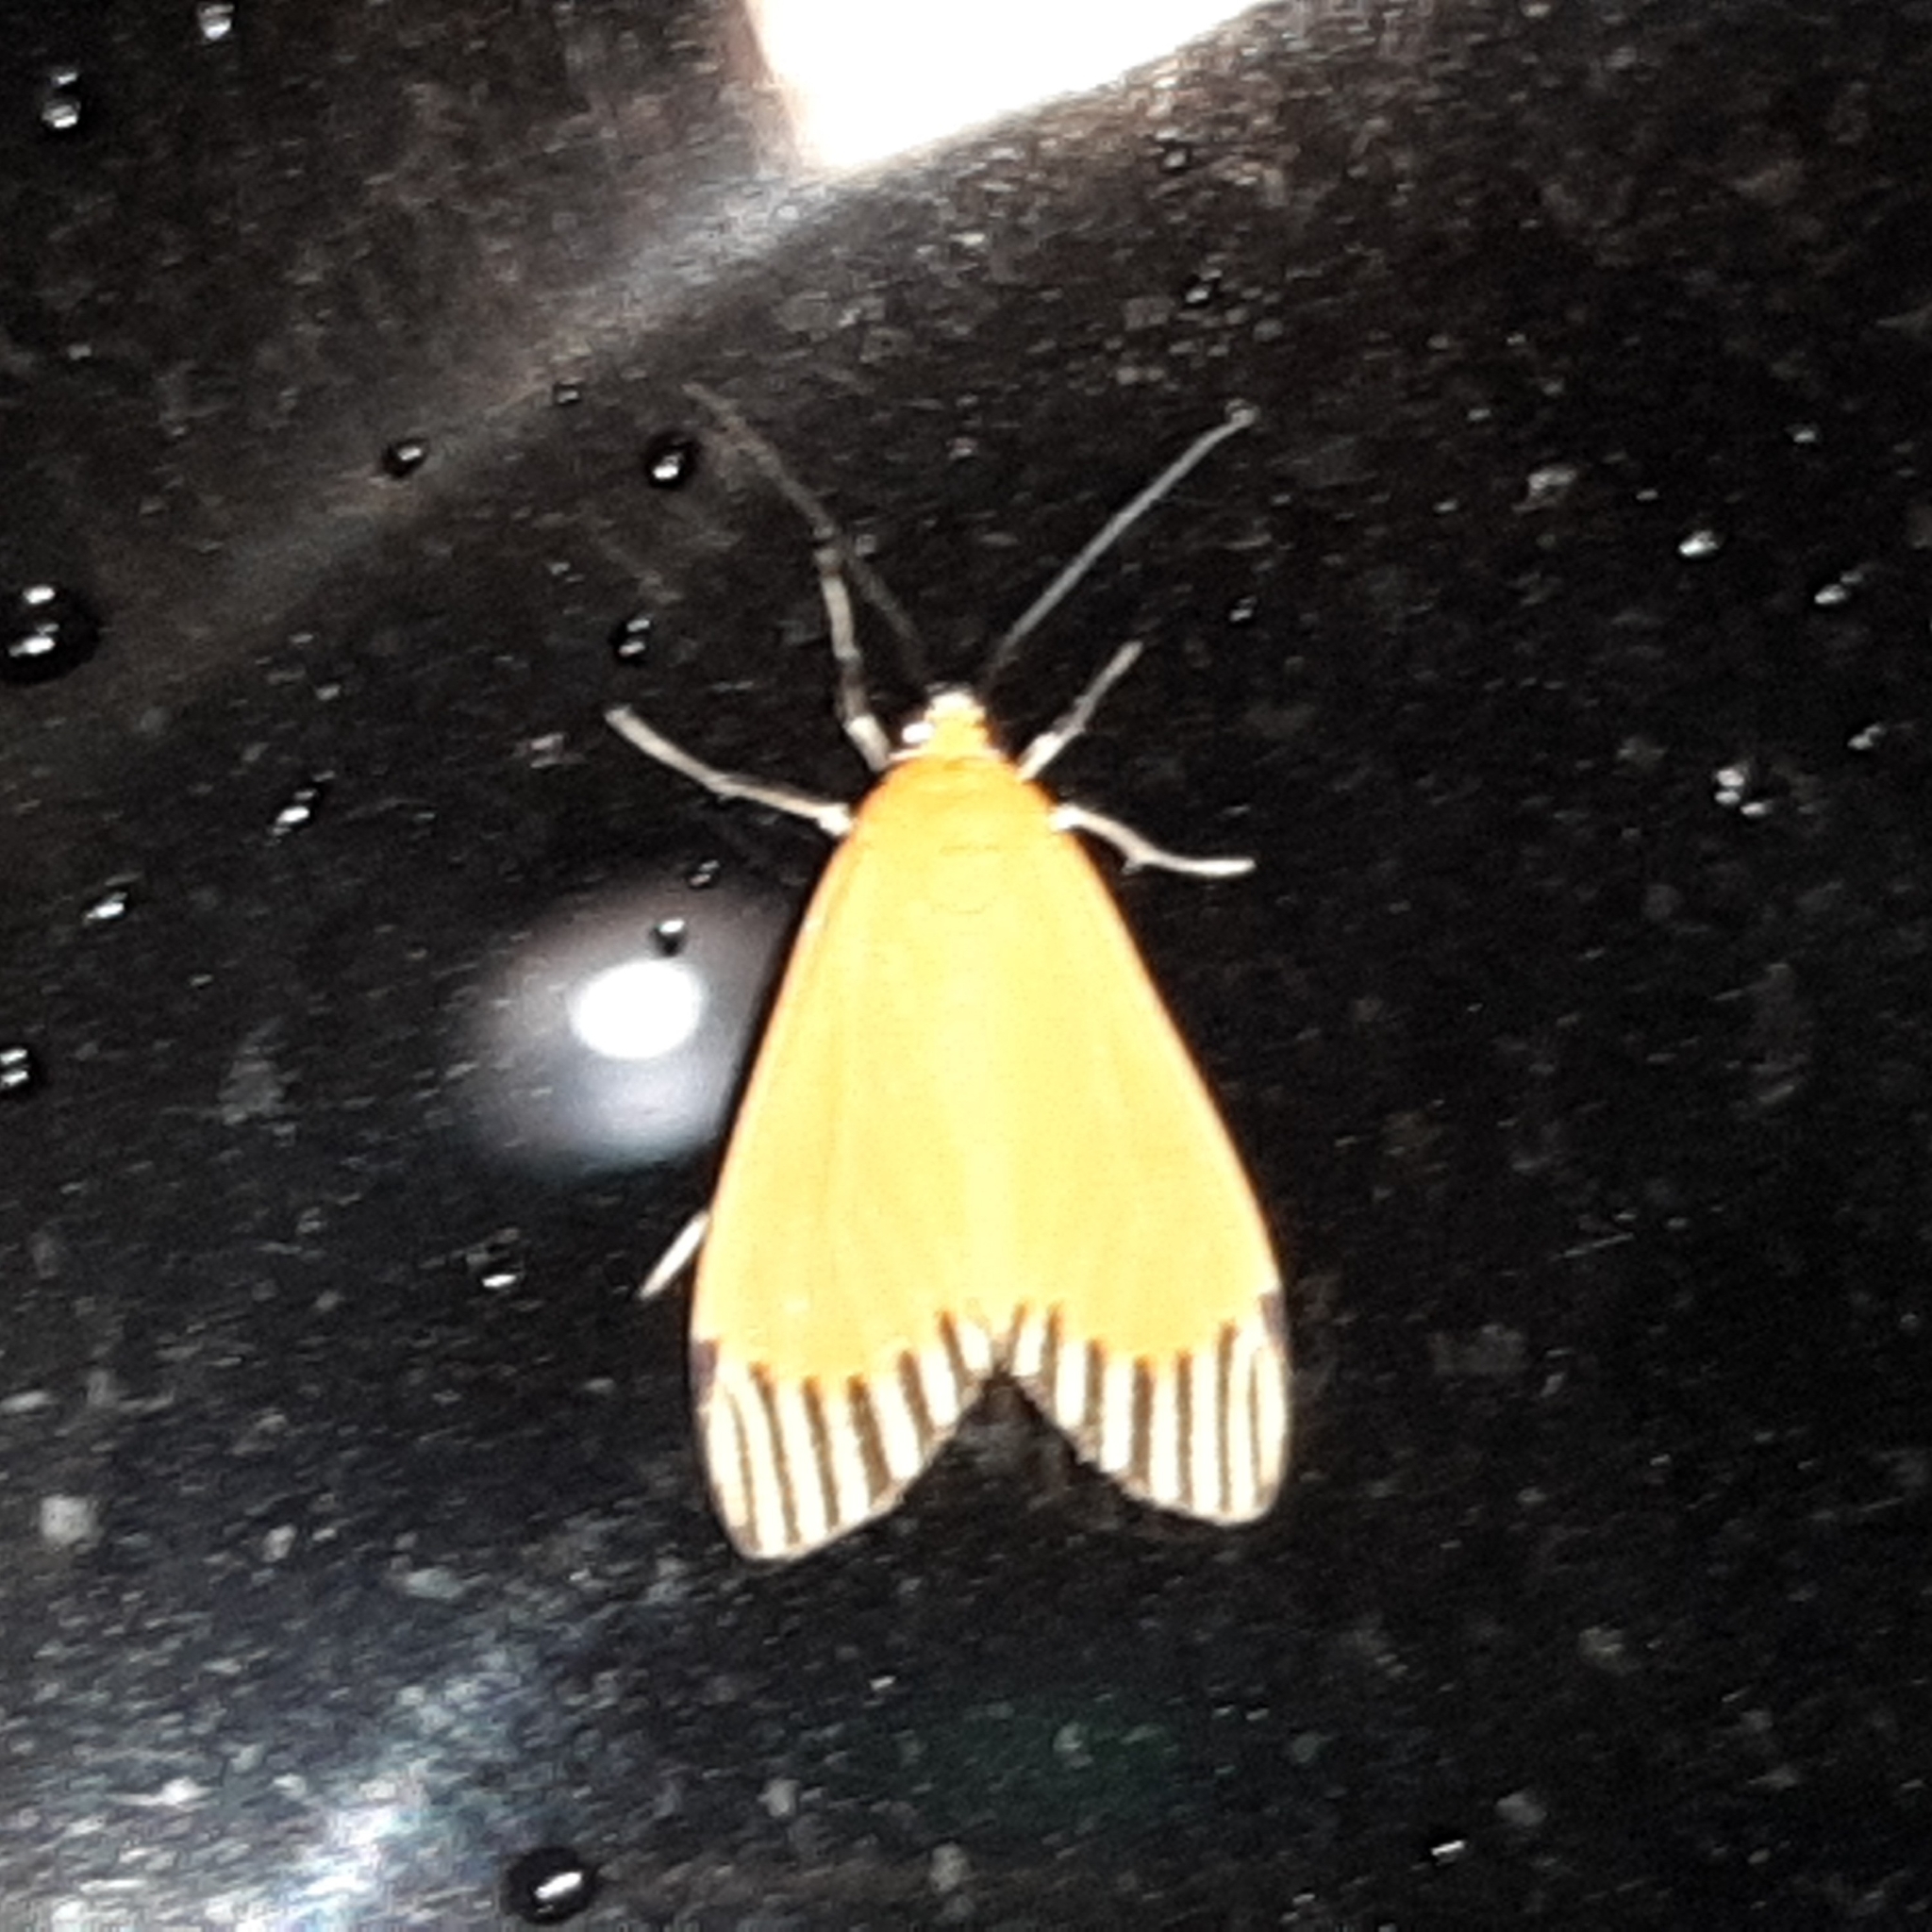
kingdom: Animalia
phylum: Arthropoda
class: Insecta
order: Lepidoptera
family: Erebidae
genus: Uranophora
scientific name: Uranophora walkeri
